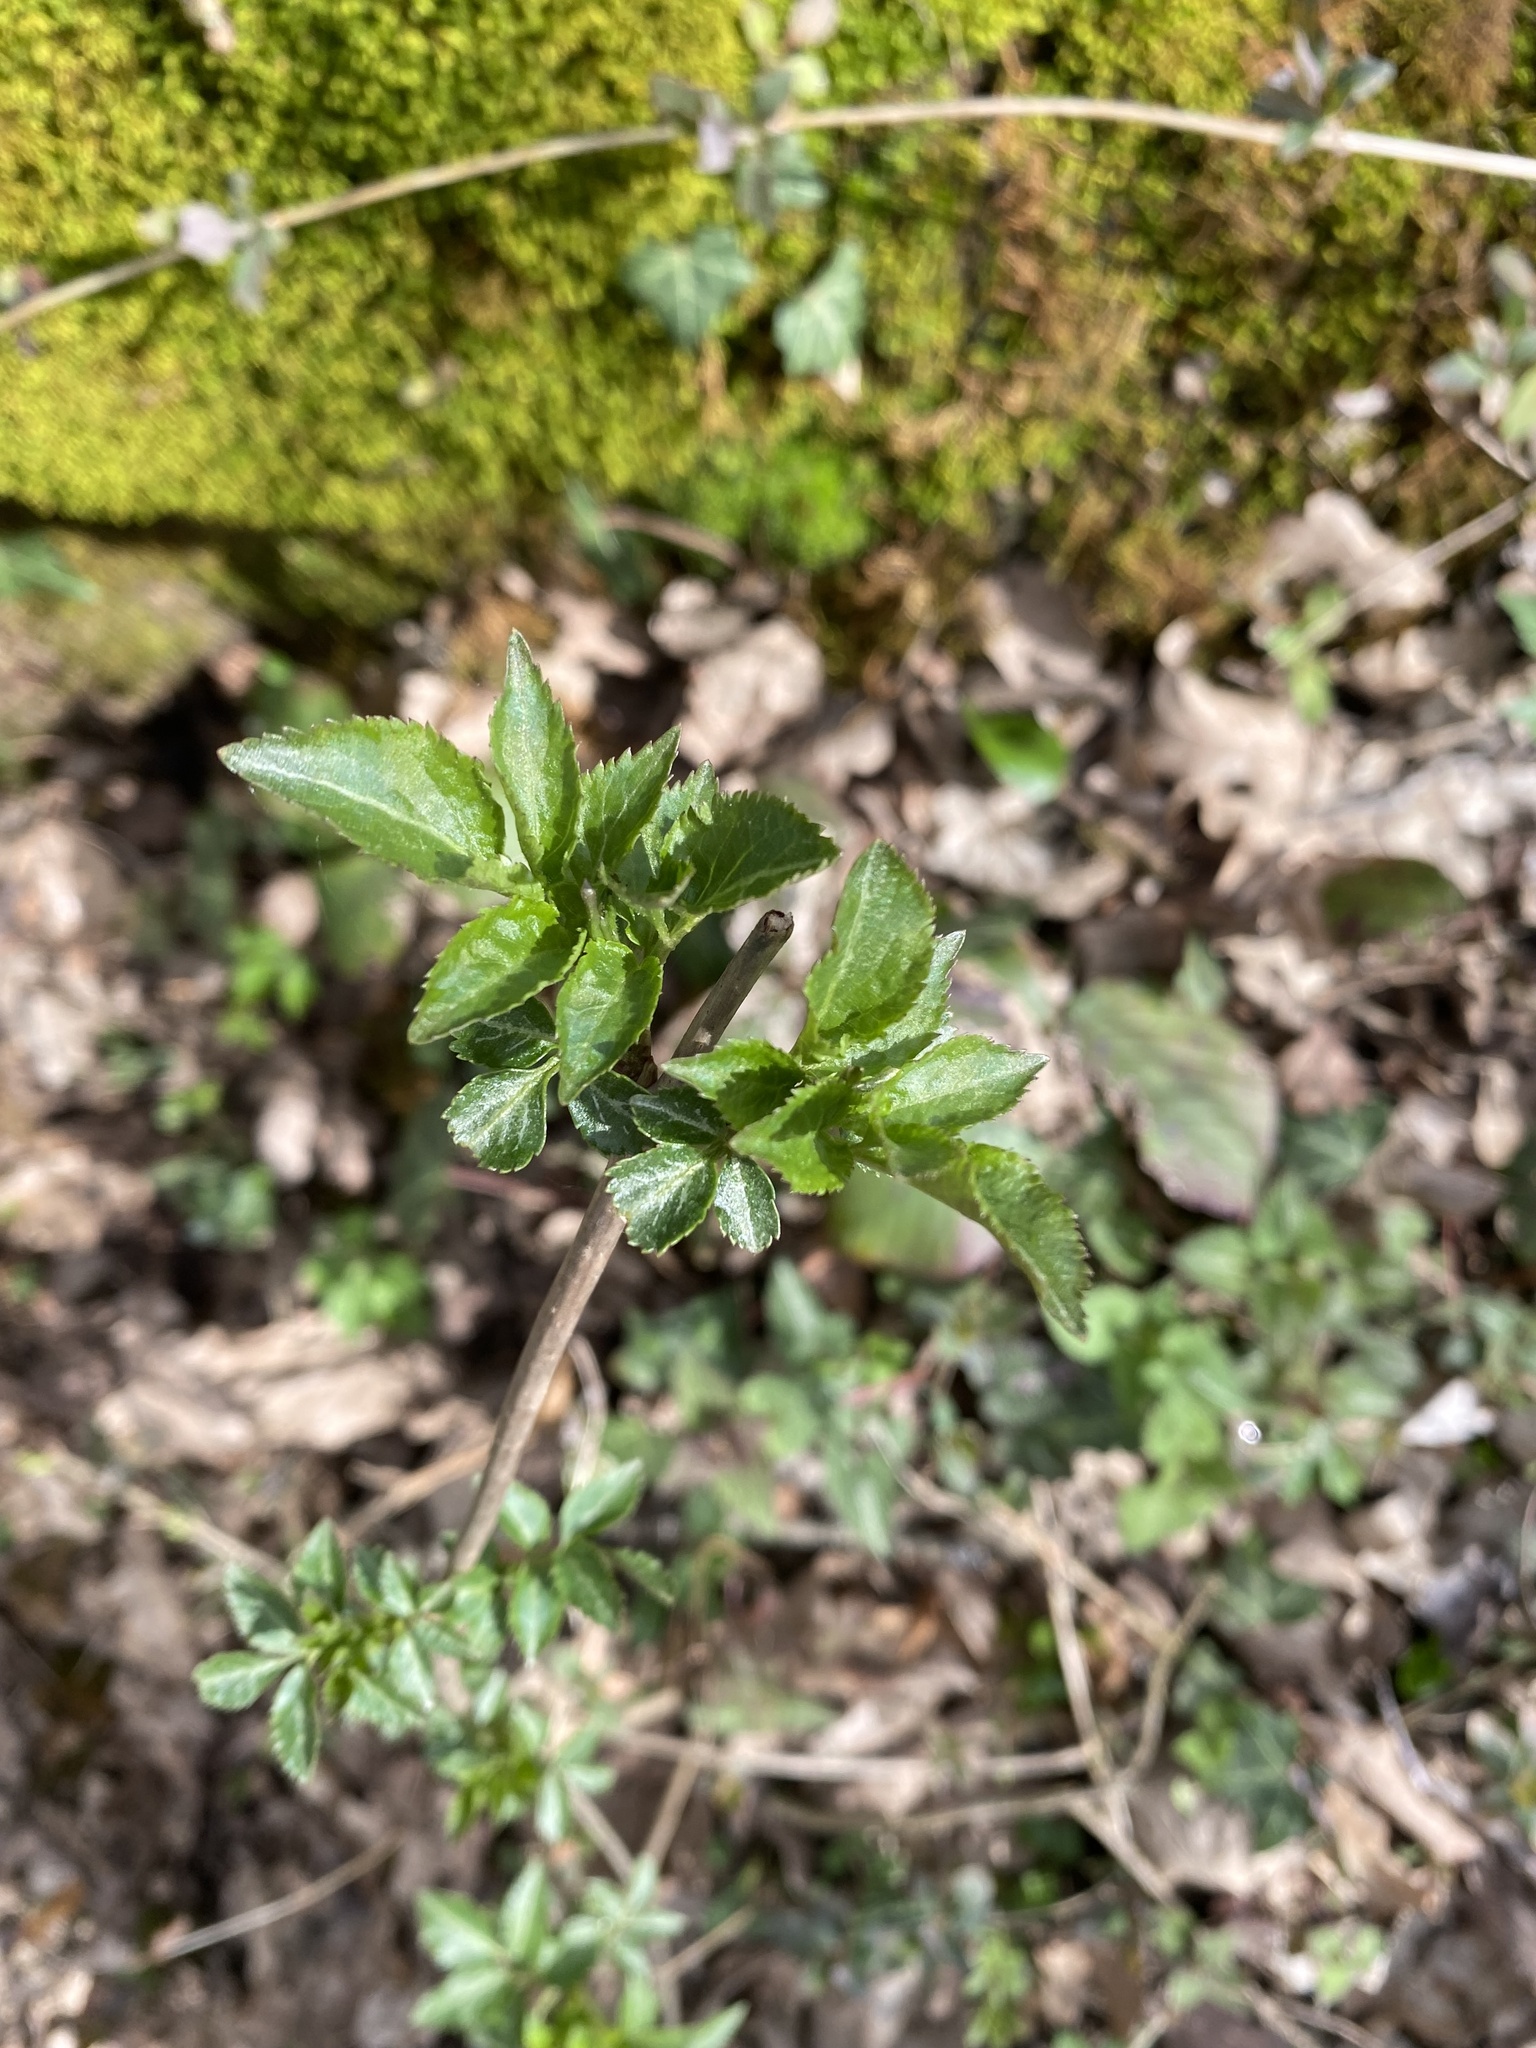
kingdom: Plantae
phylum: Tracheophyta
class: Magnoliopsida
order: Dipsacales
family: Viburnaceae
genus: Sambucus
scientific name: Sambucus nigra
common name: Elder
